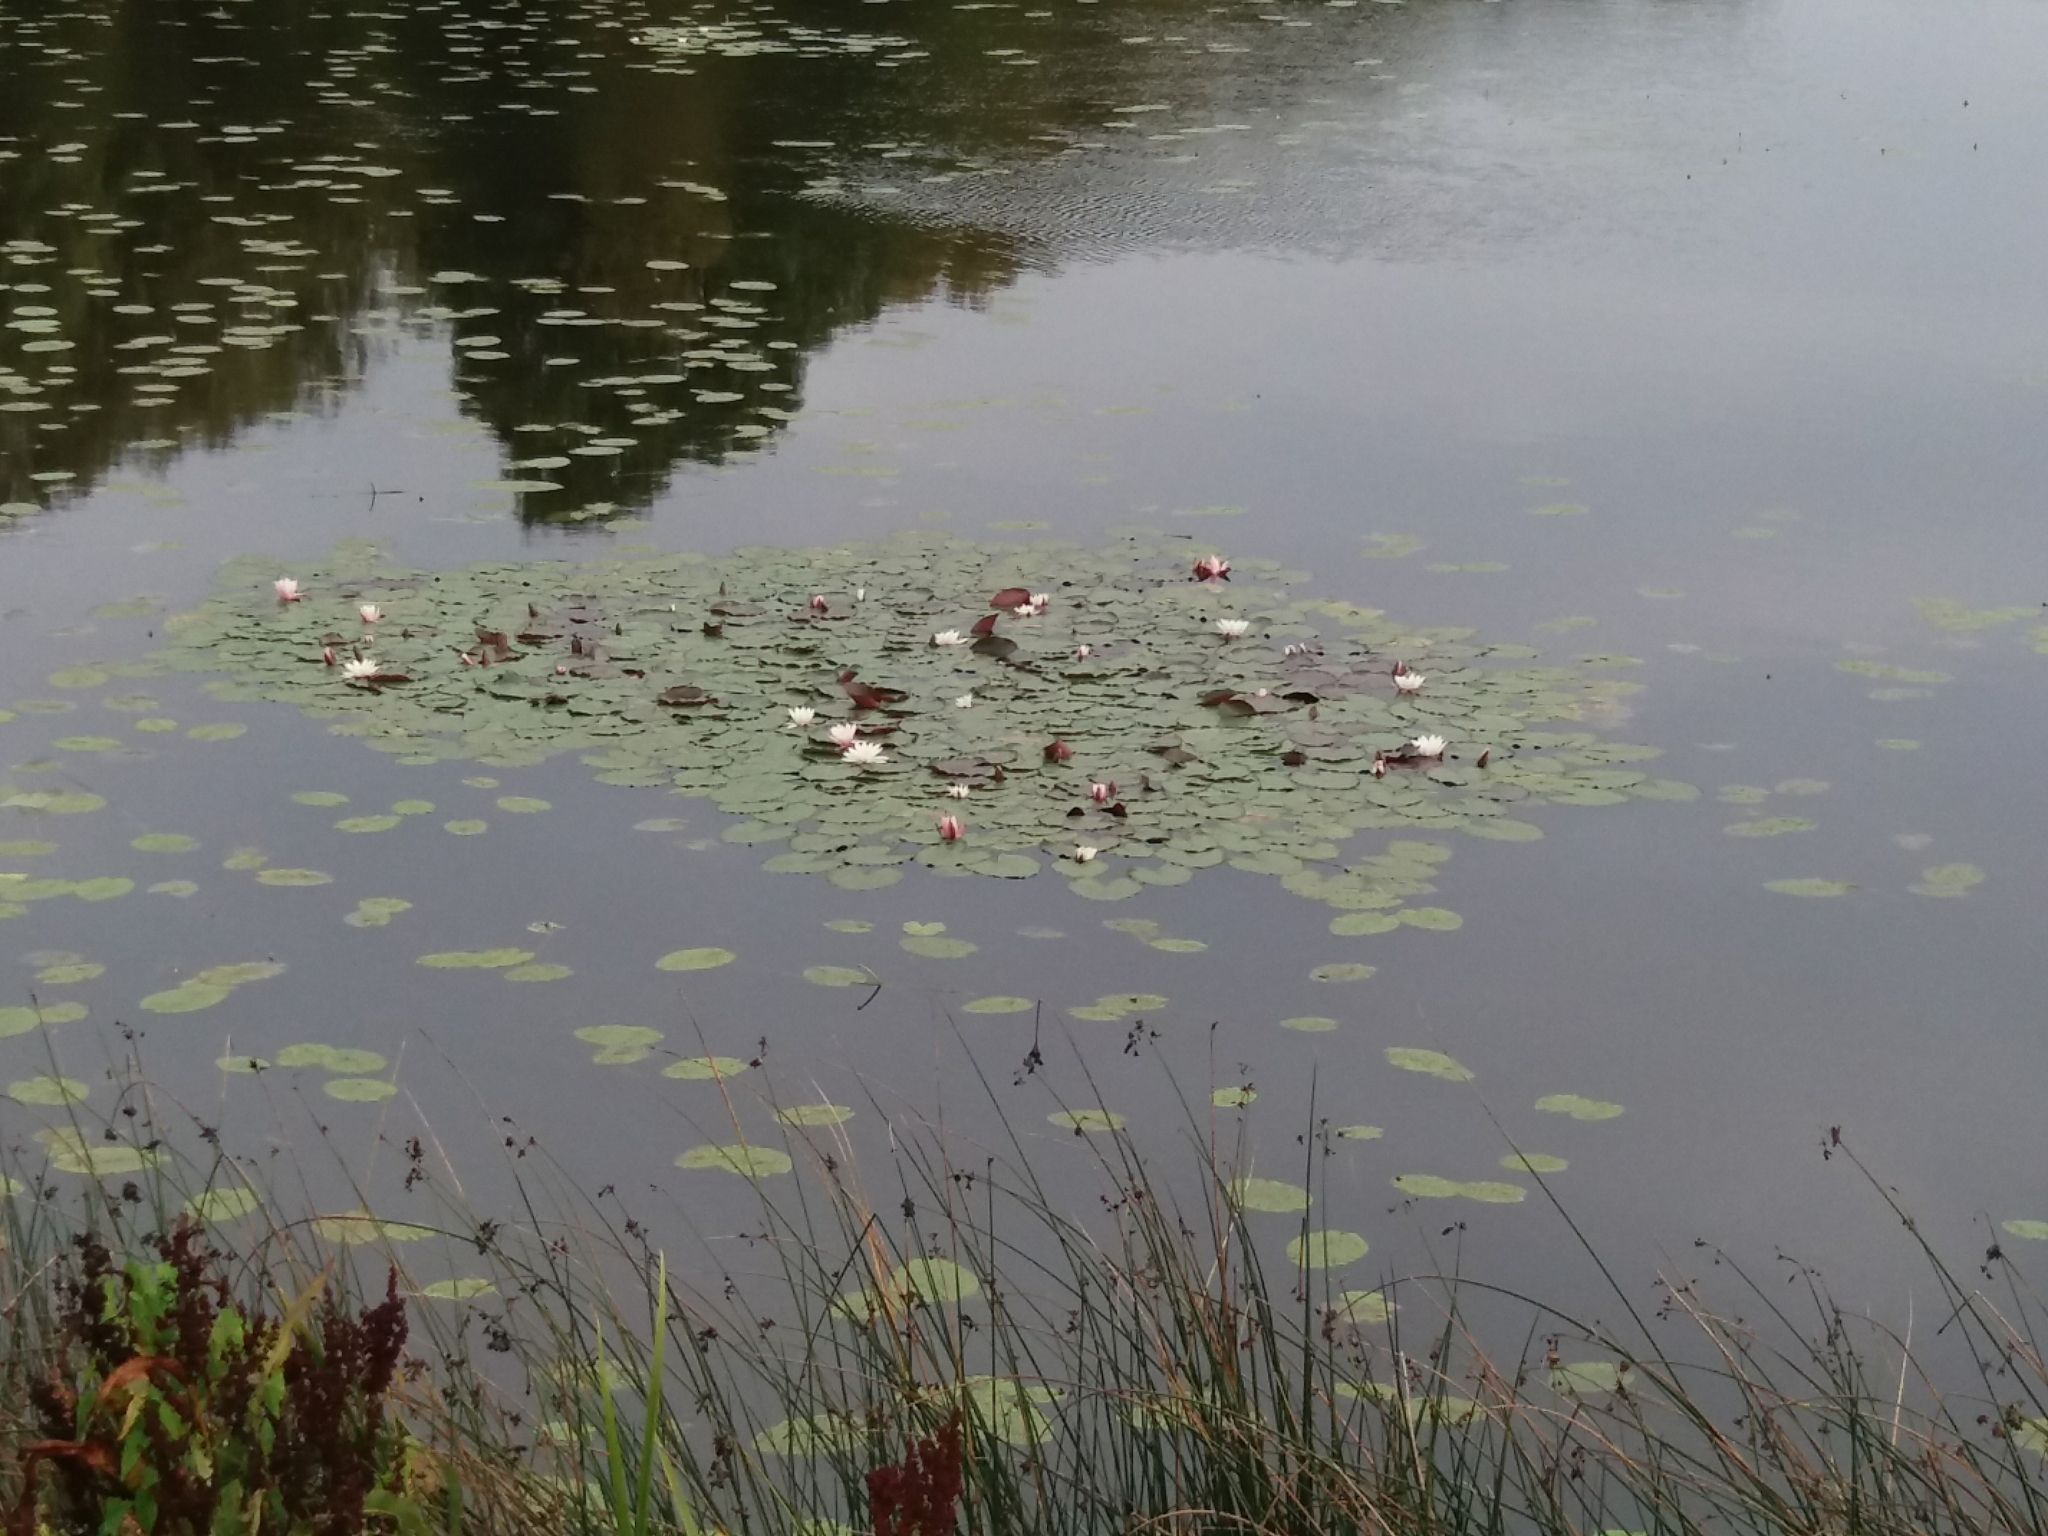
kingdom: Plantae
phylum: Tracheophyta
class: Magnoliopsida
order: Nymphaeales
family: Nymphaeaceae
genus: Nymphaea
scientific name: Nymphaea alba
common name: White water-lily
